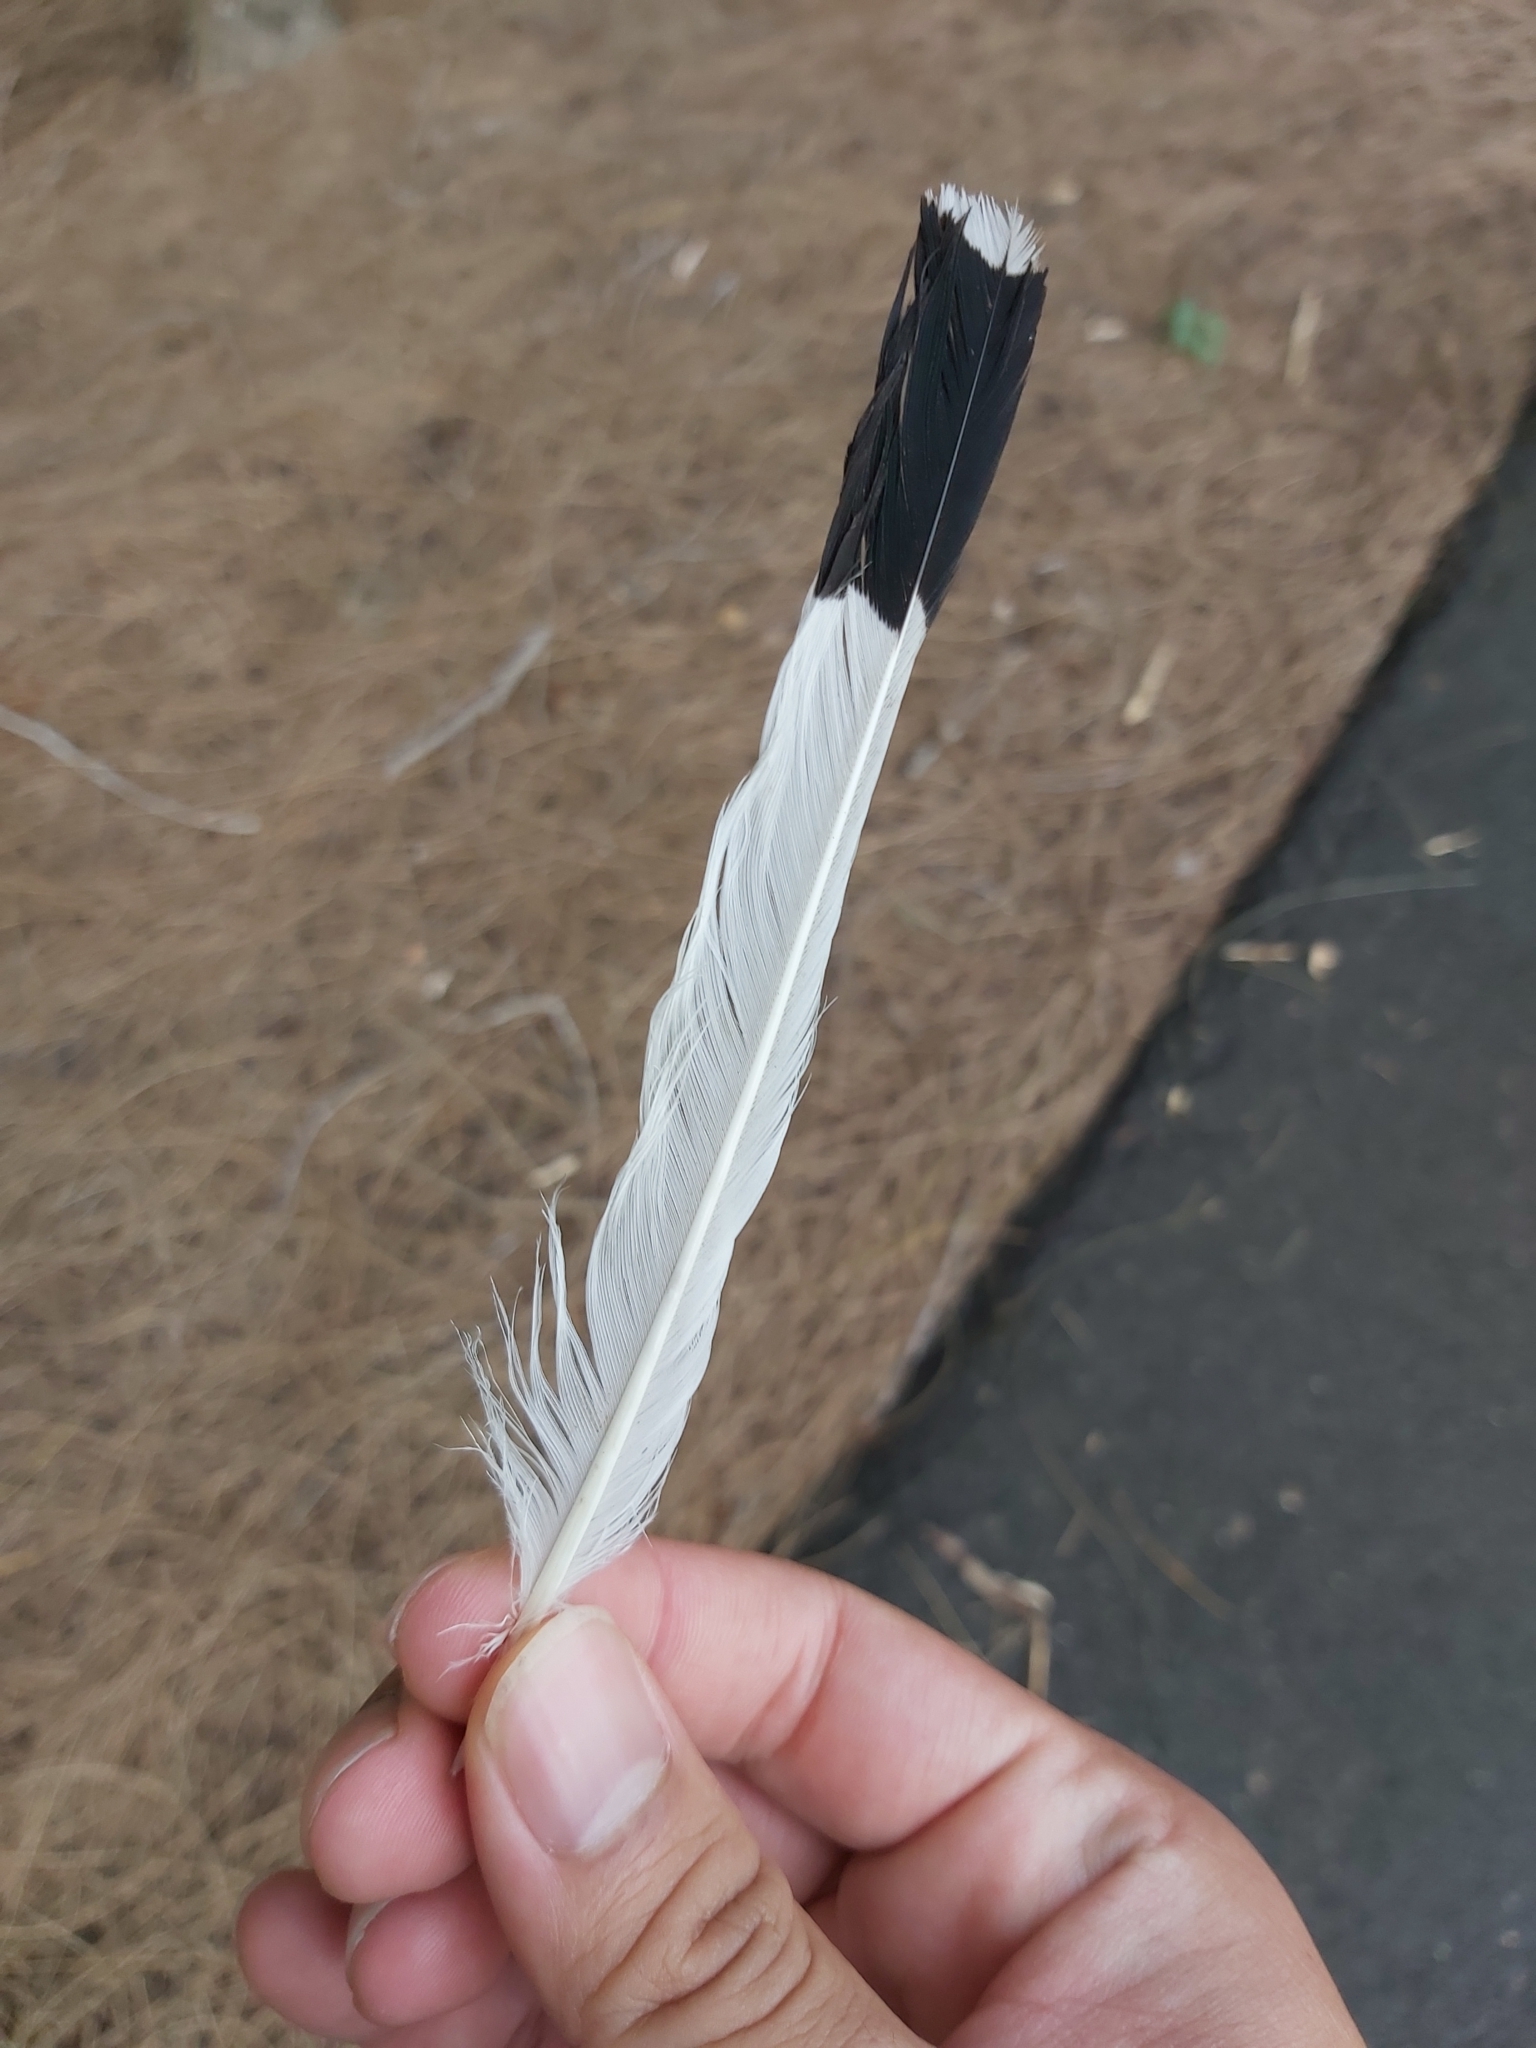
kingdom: Animalia
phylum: Chordata
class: Aves
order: Passeriformes
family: Monarchidae
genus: Grallina
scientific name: Grallina cyanoleuca
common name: Magpie-lark
